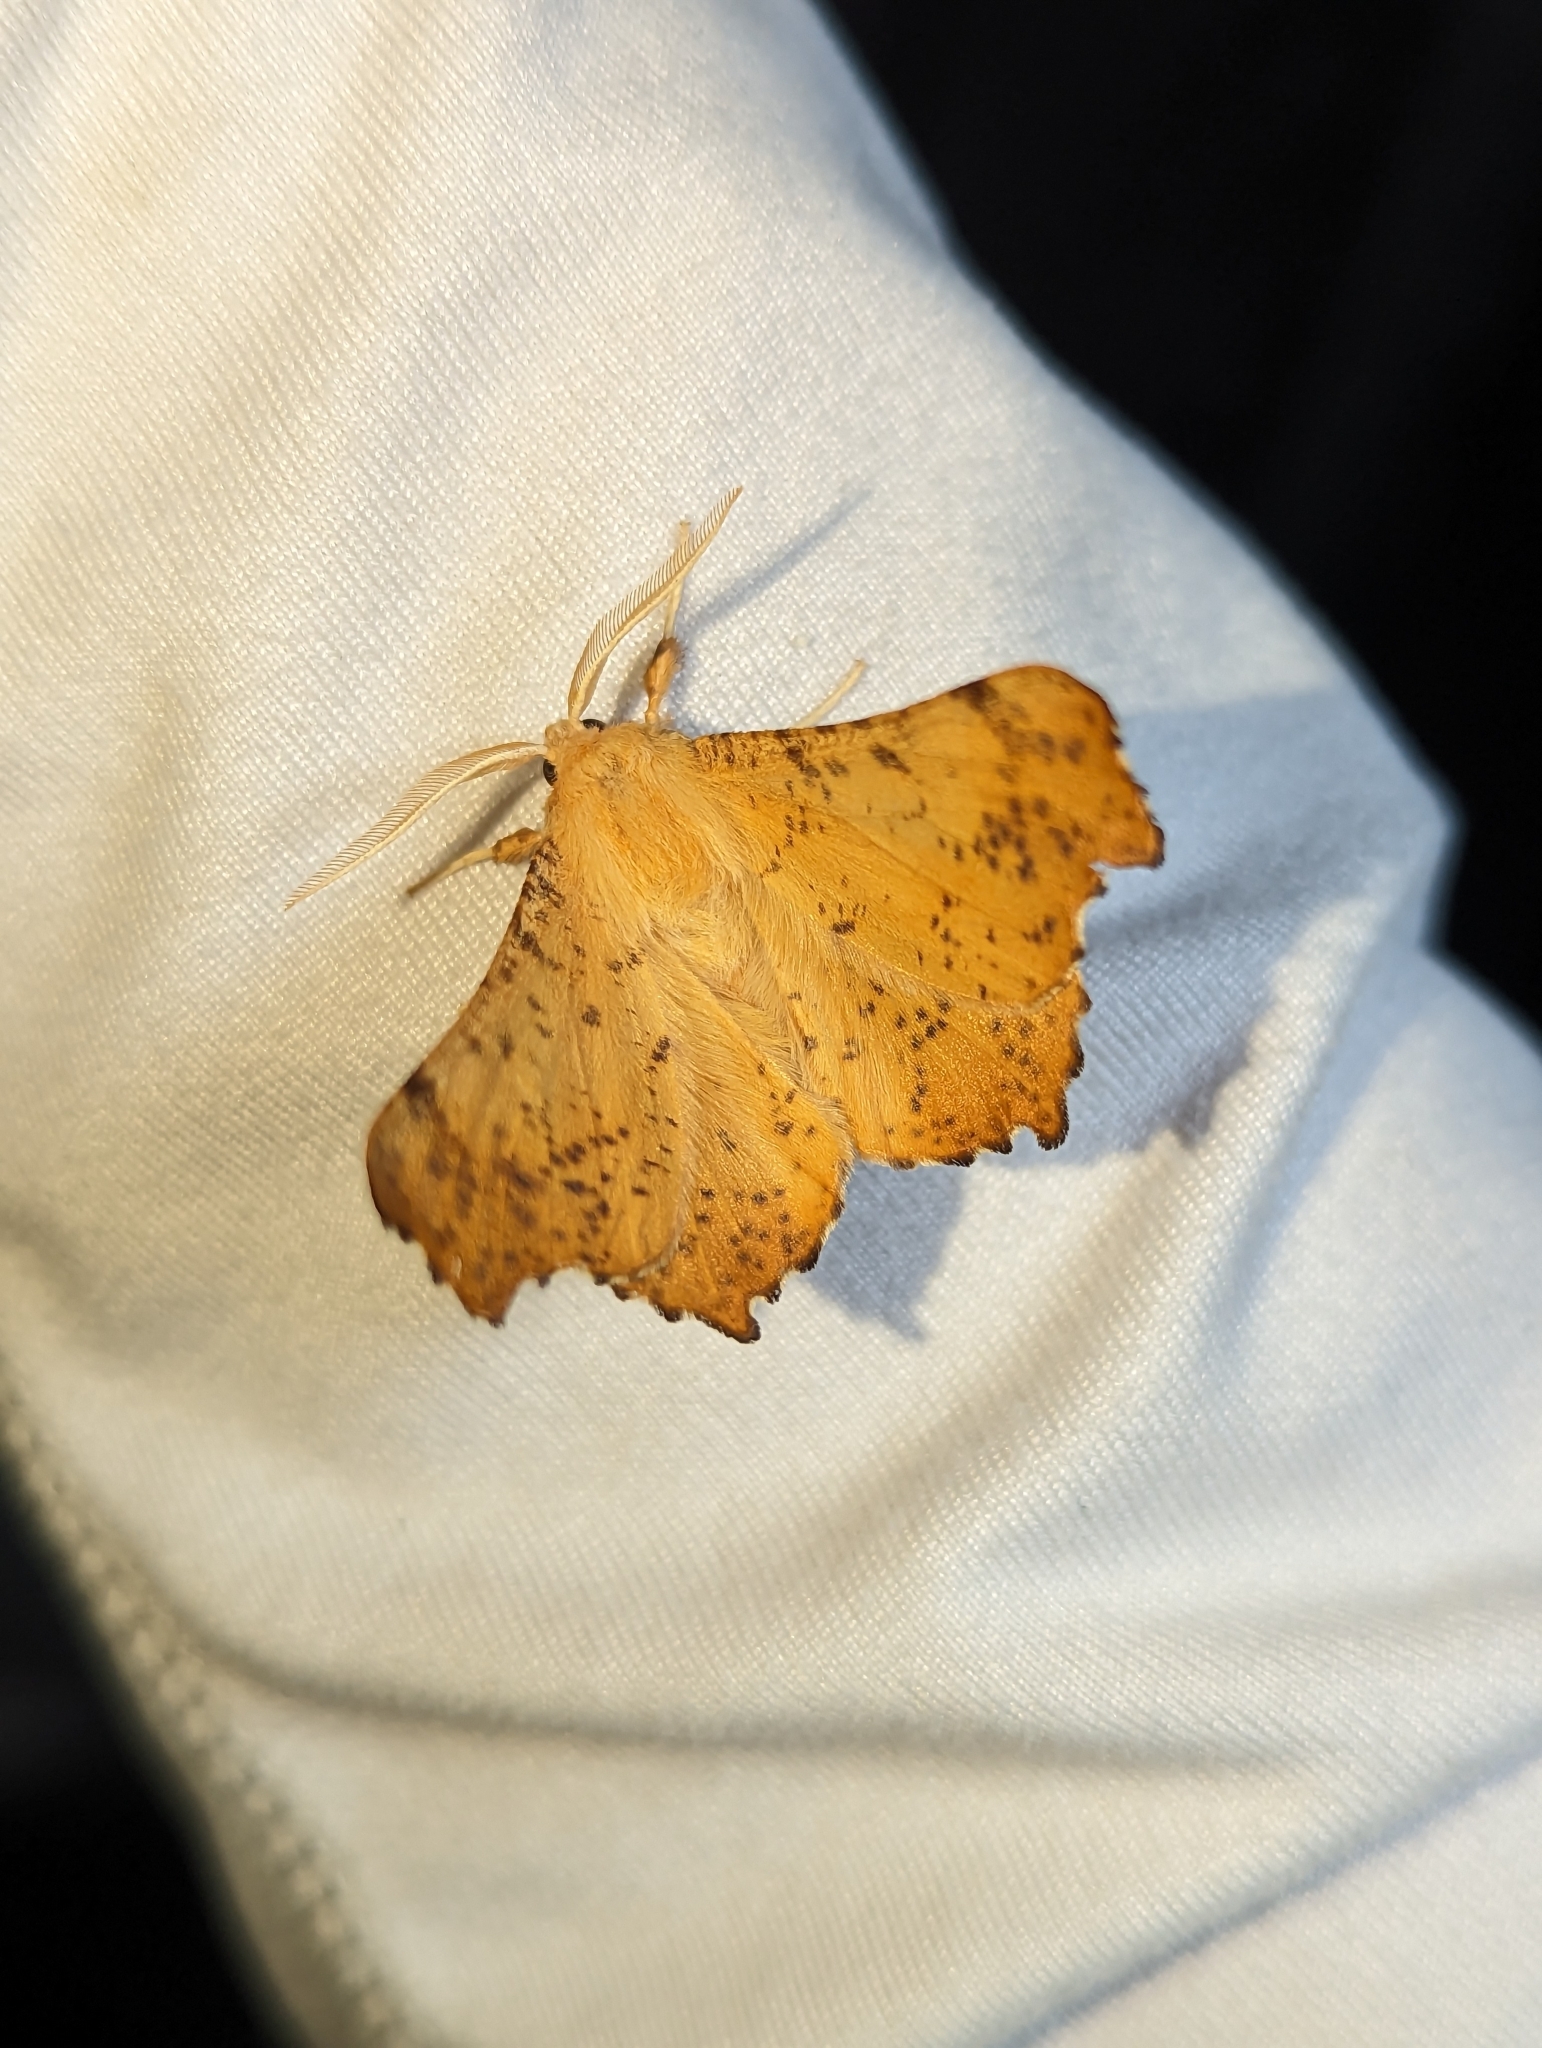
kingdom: Animalia
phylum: Arthropoda
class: Insecta
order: Lepidoptera
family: Geometridae
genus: Ennomos
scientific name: Ennomos magnaria
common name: Maple spanworm
